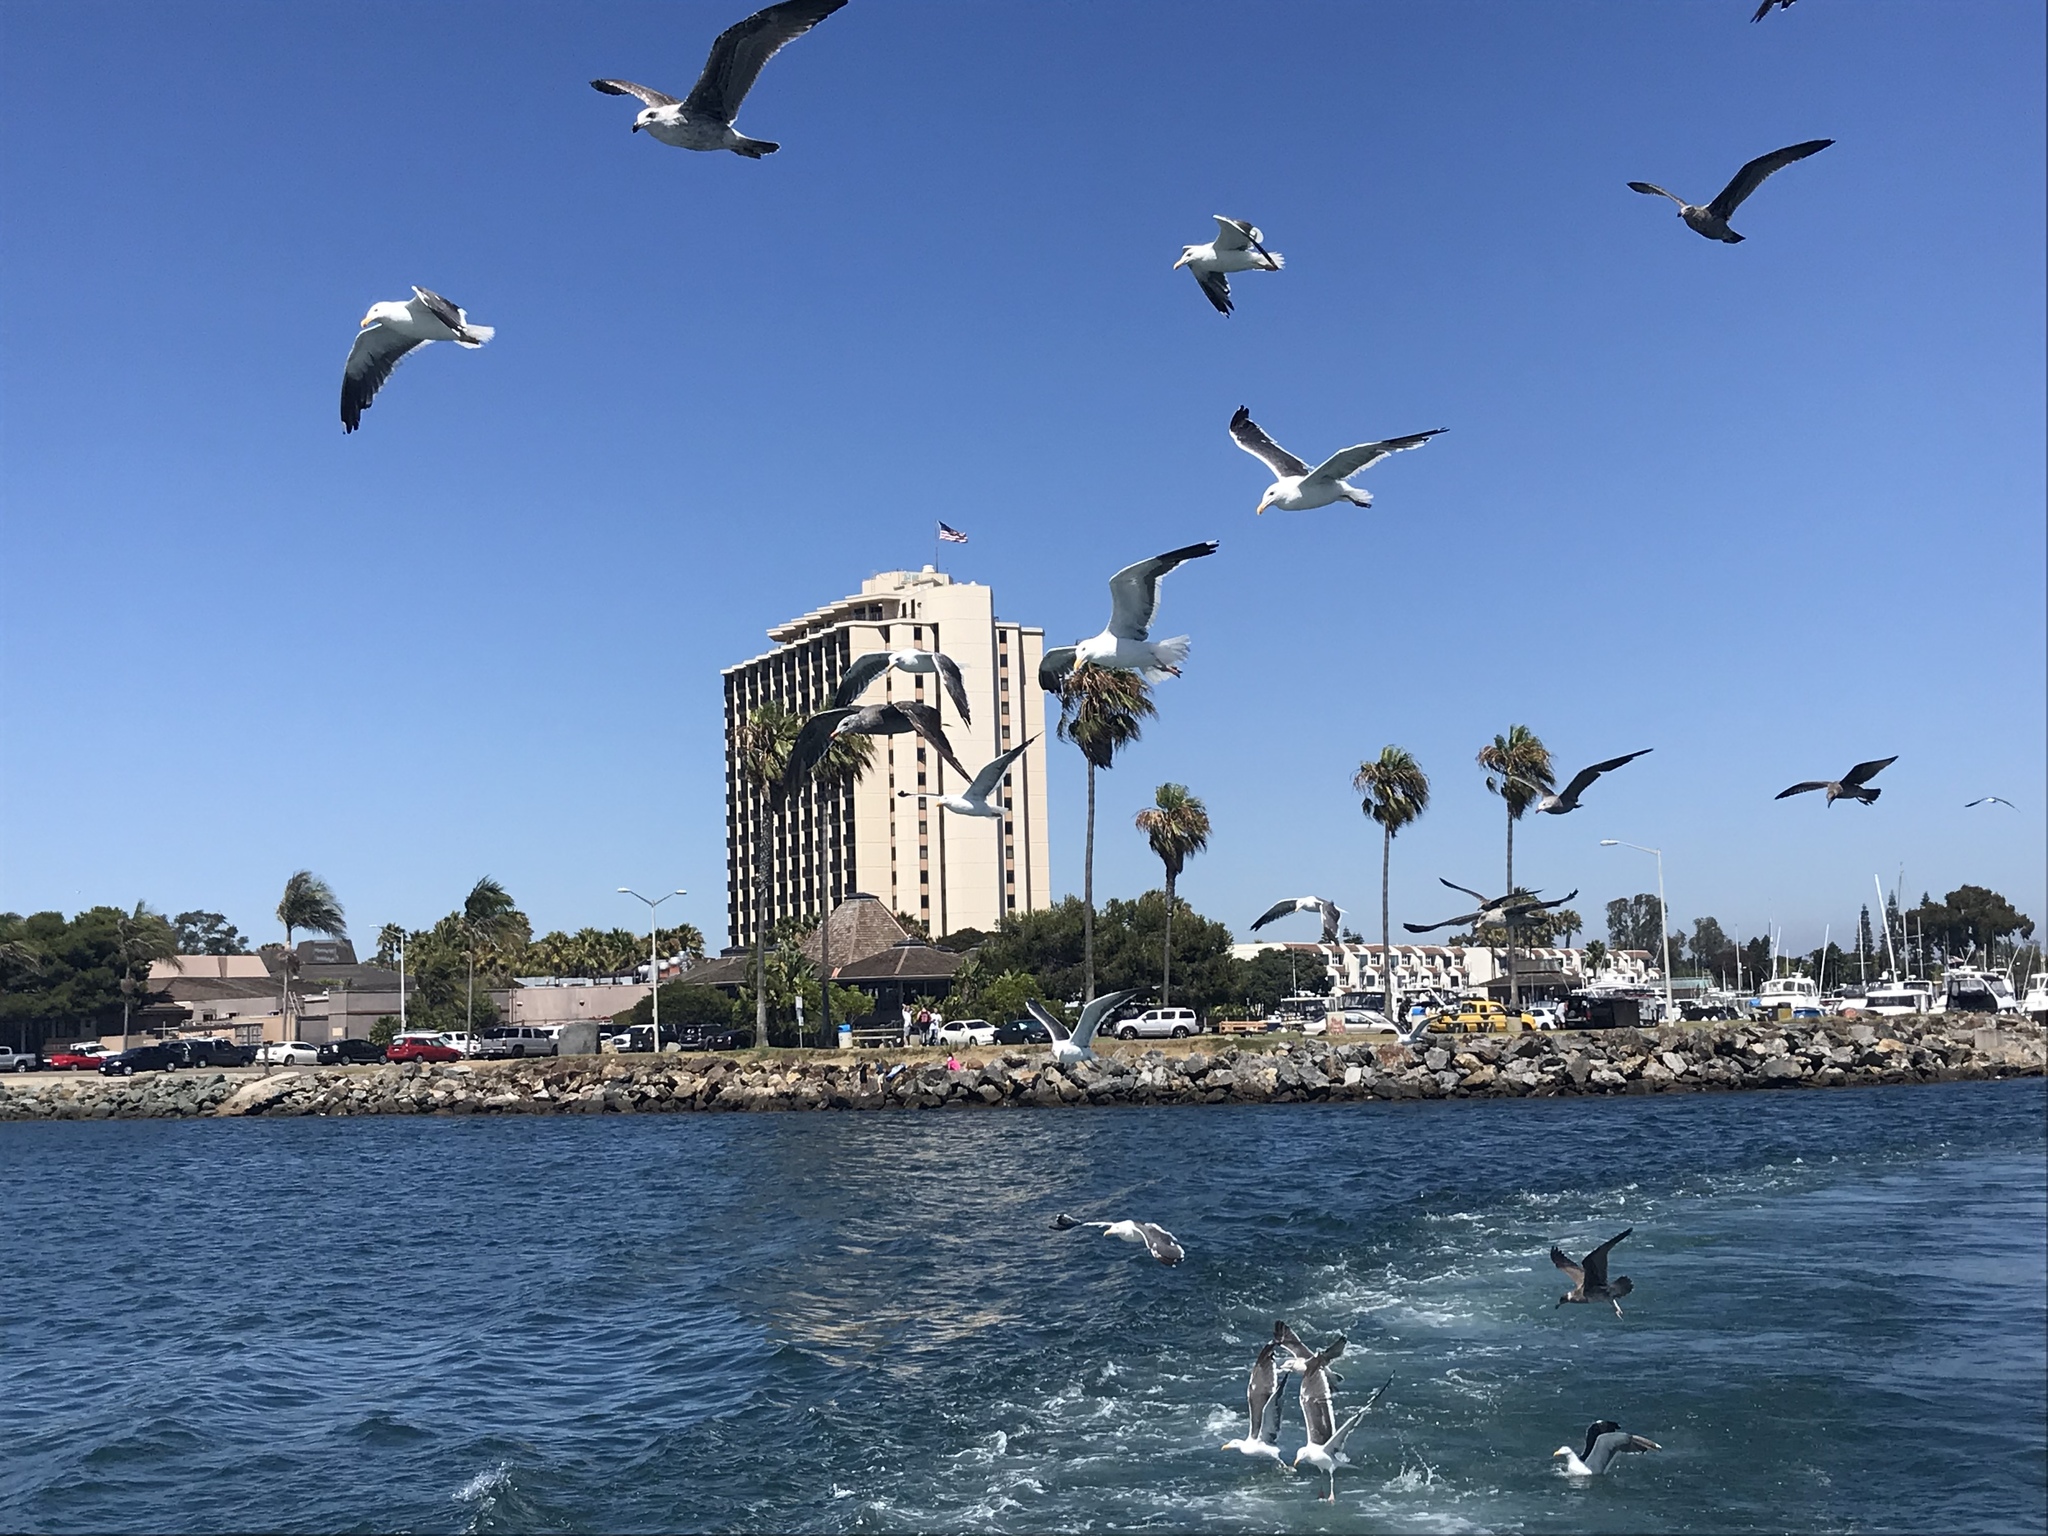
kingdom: Animalia
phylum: Chordata
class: Aves
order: Charadriiformes
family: Laridae
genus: Larus
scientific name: Larus heermanni
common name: Heermann's gull
